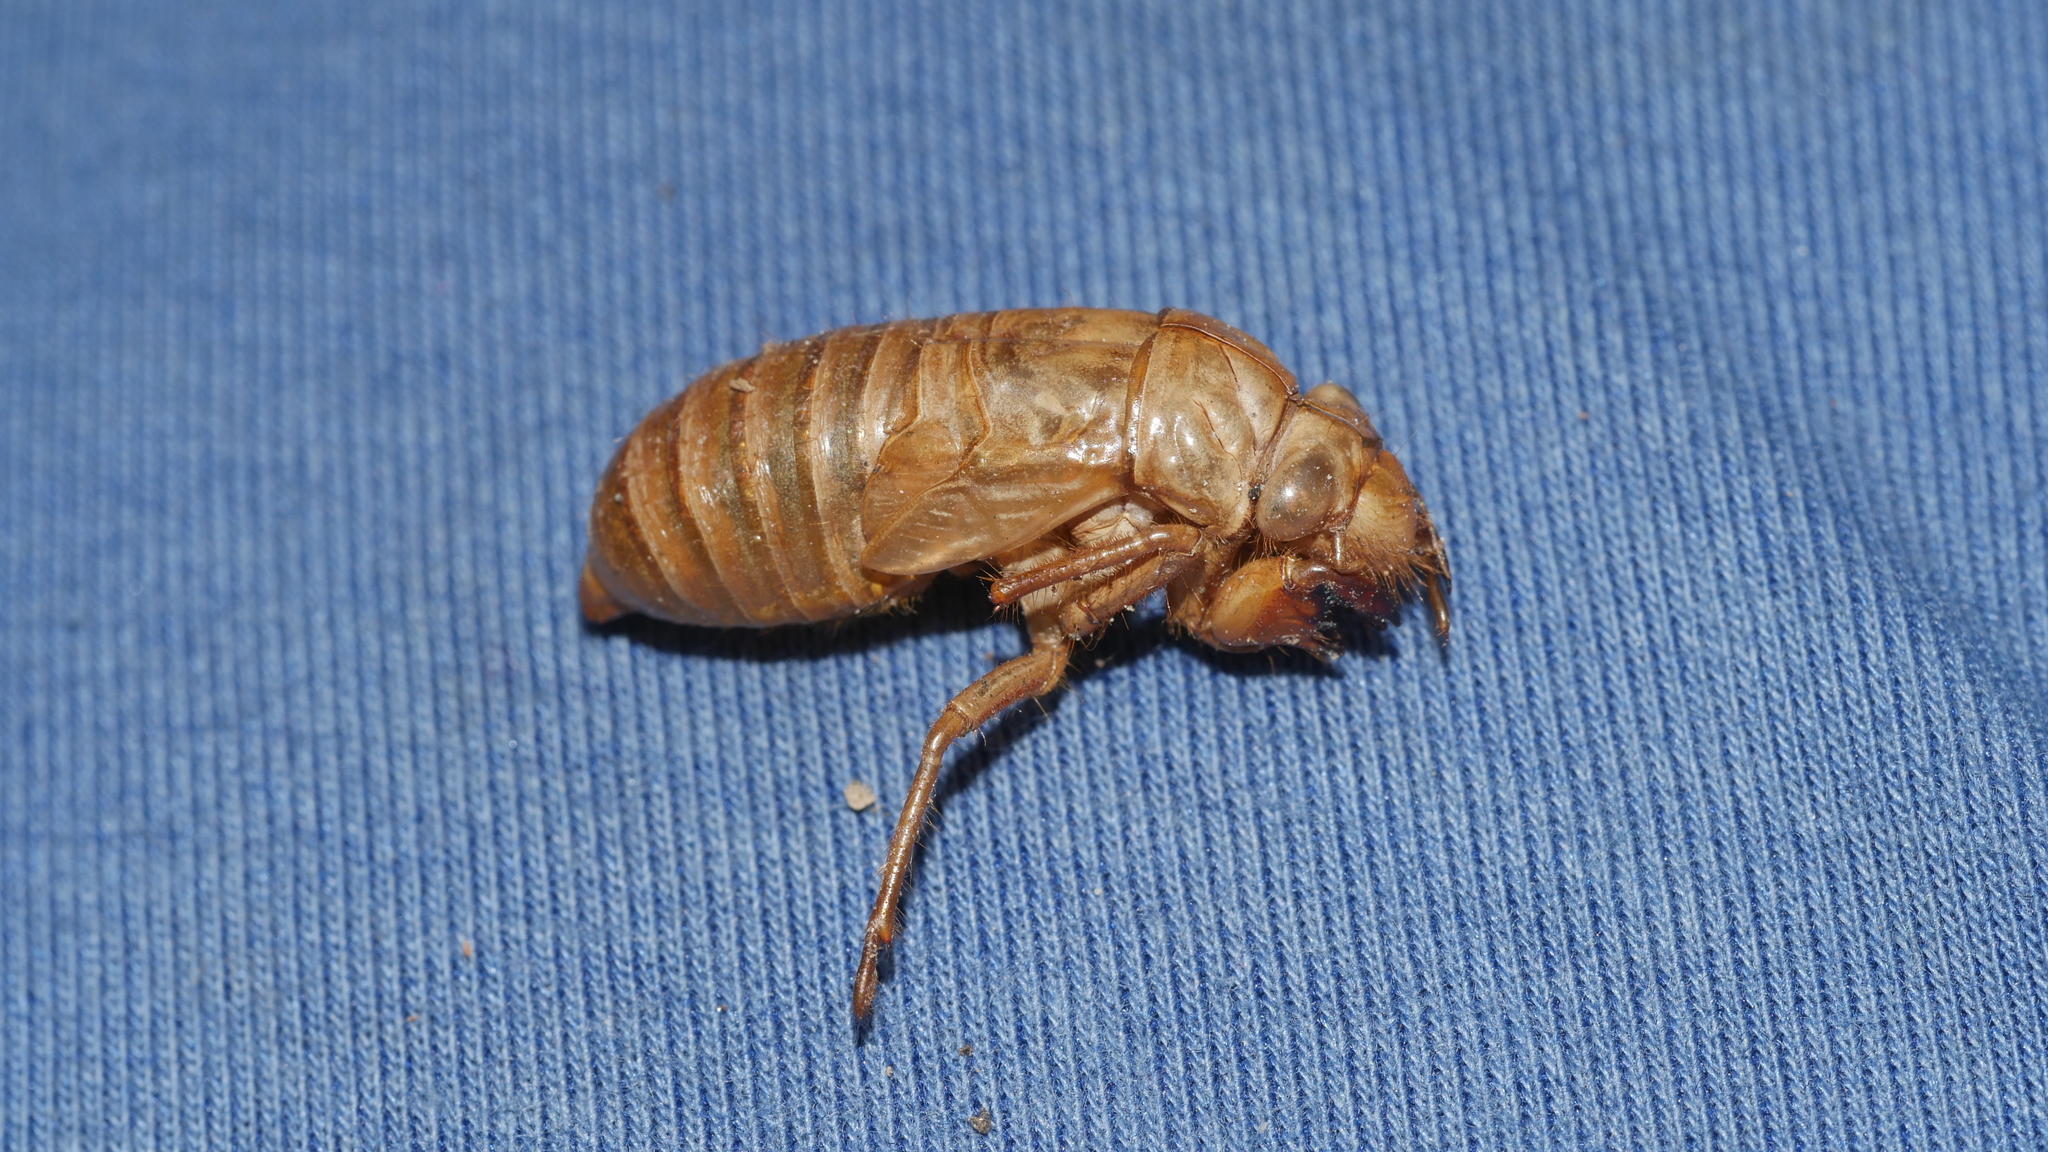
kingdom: Animalia
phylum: Arthropoda
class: Insecta
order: Hemiptera
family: Cicadidae
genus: Magicicada
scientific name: Magicicada
